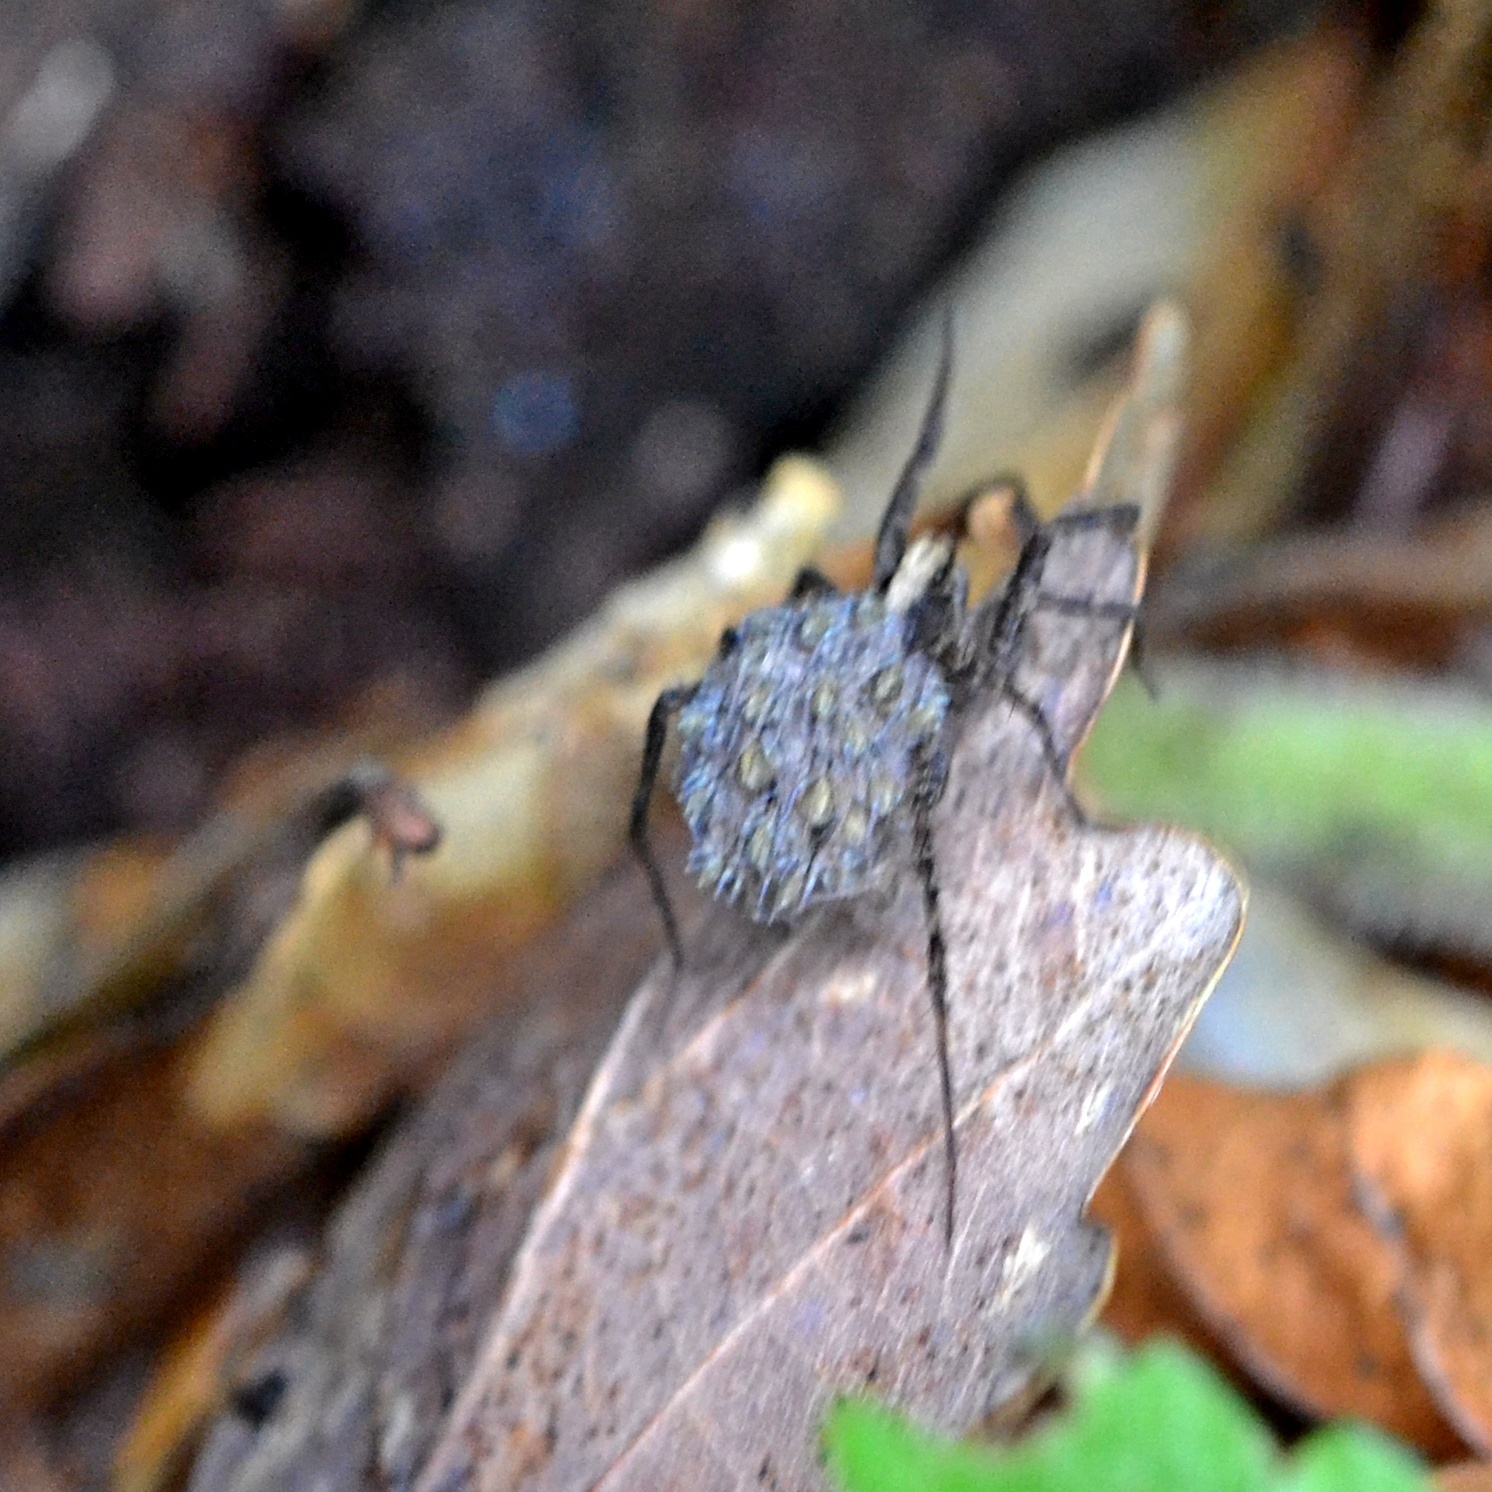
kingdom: Animalia
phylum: Arthropoda
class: Arachnida
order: Araneae
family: Lycosidae
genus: Pardosa
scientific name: Pardosa
